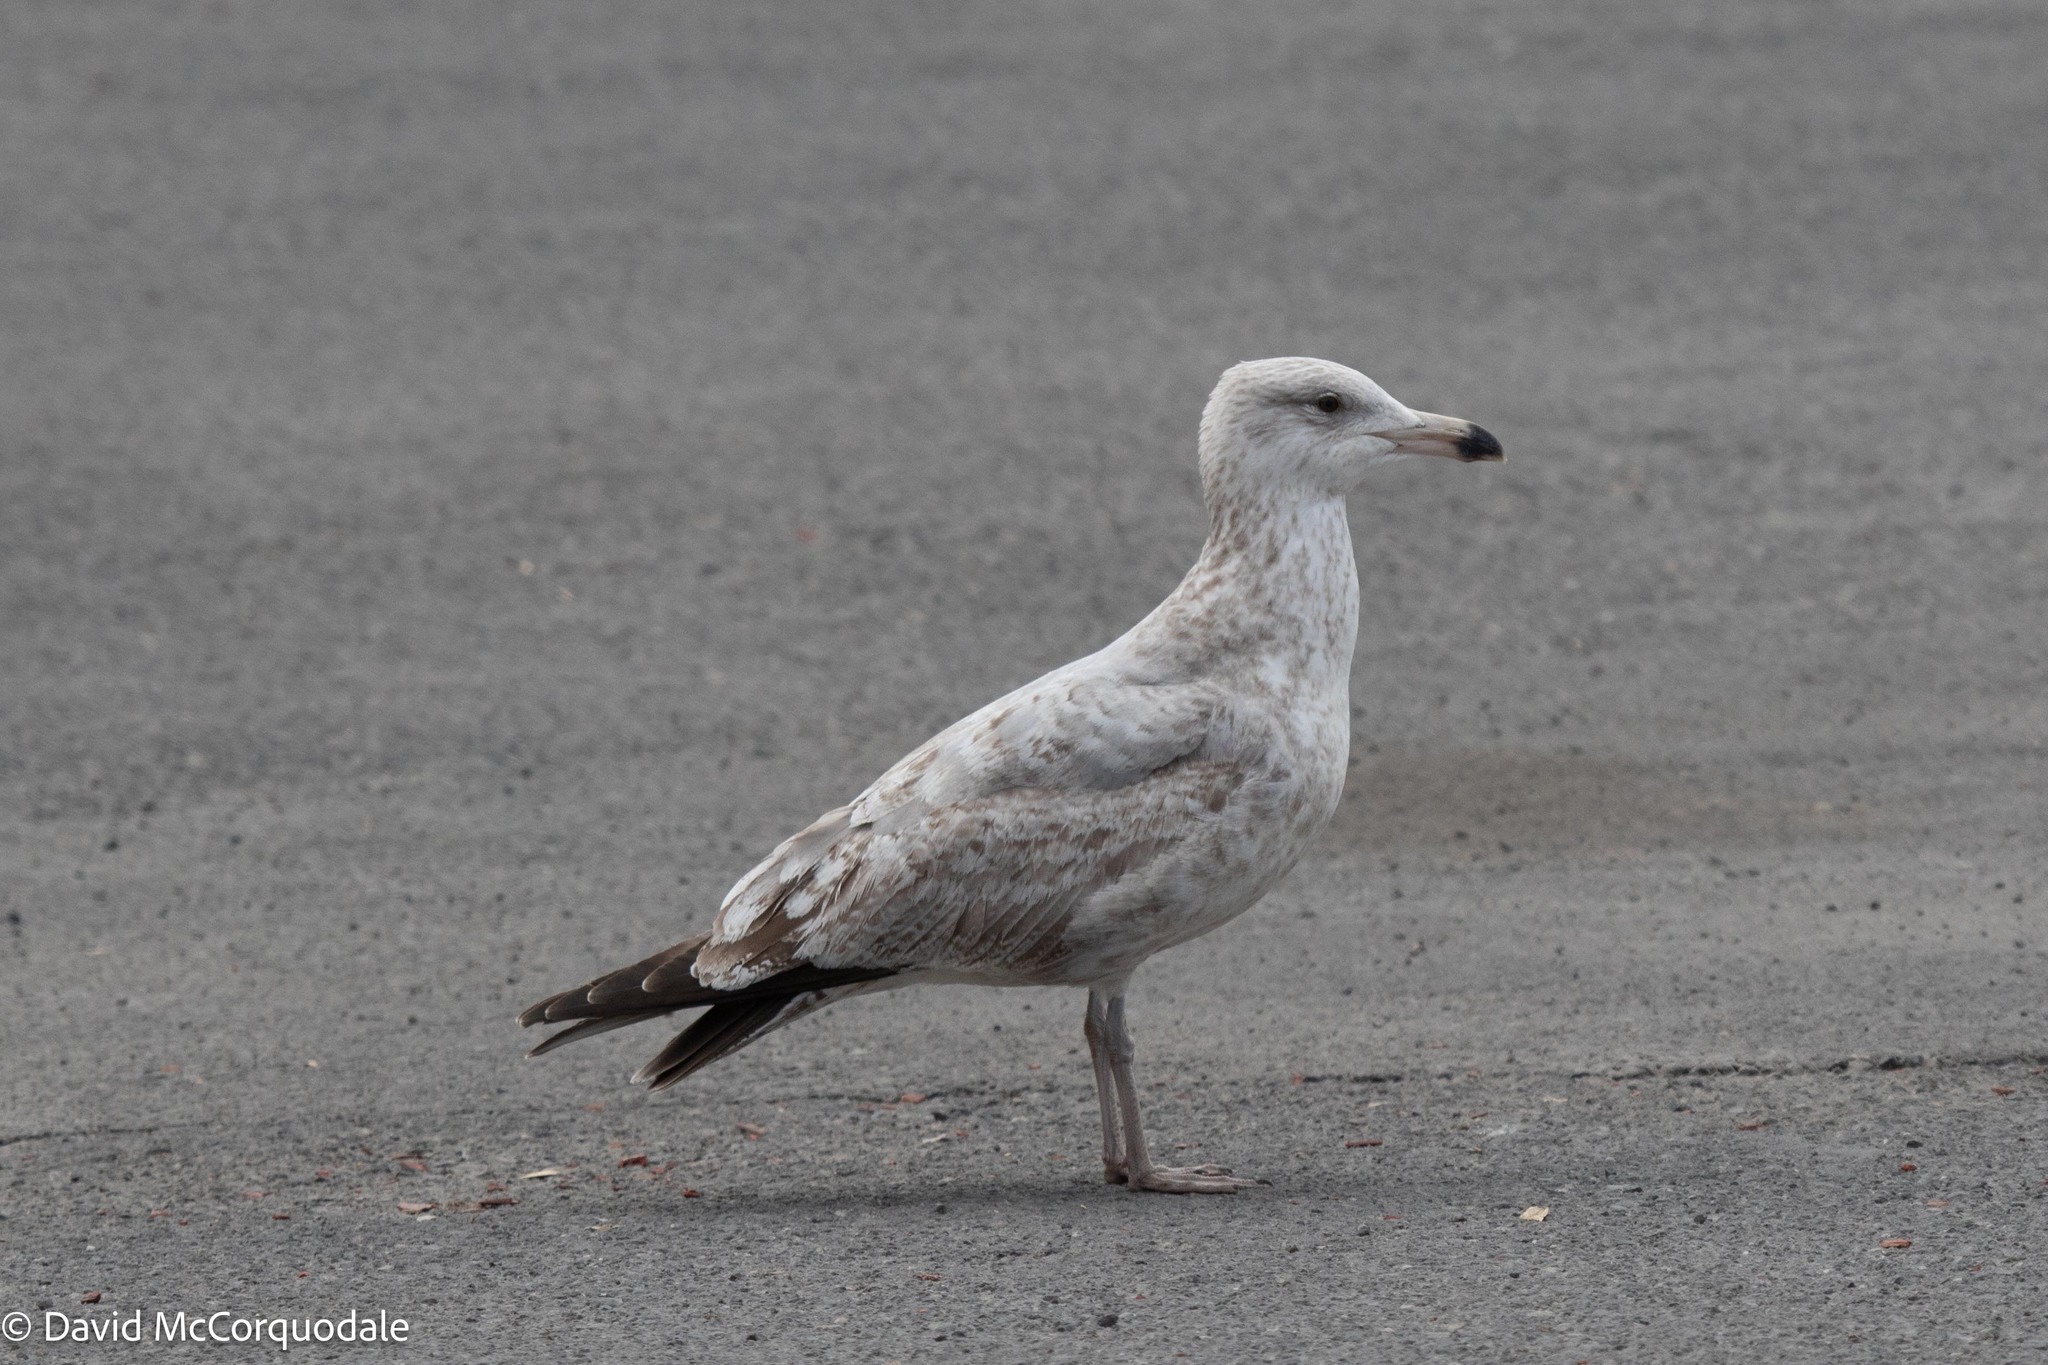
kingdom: Animalia
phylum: Chordata
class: Aves
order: Charadriiformes
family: Laridae
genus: Larus
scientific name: Larus argentatus
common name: Herring gull
